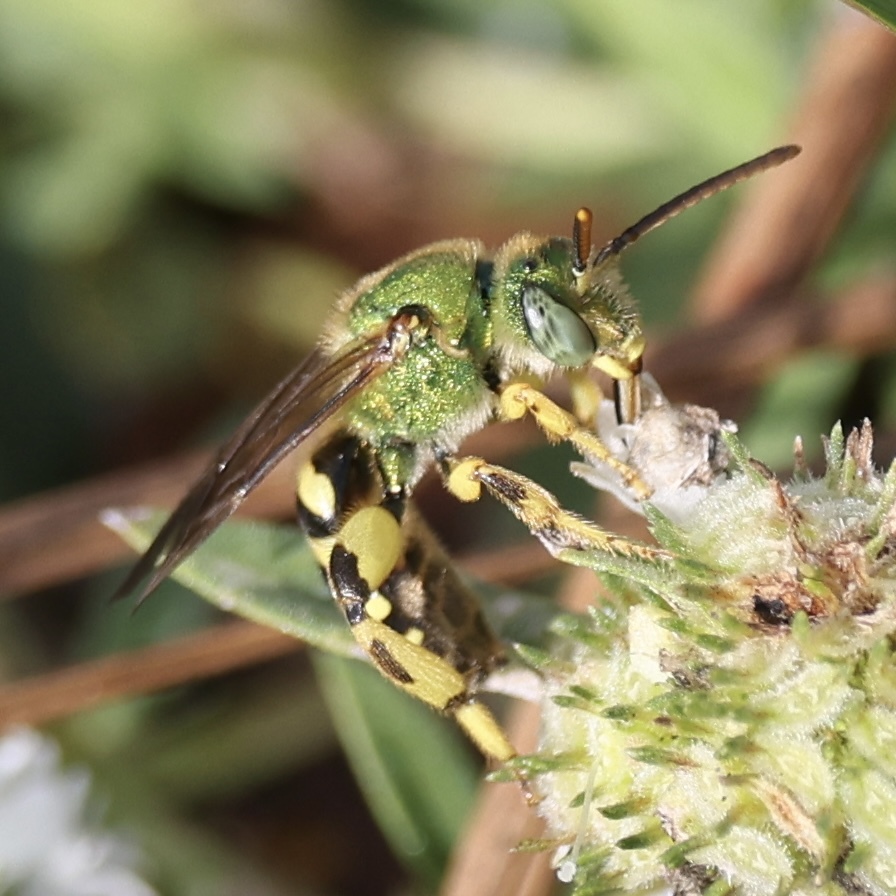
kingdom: Animalia
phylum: Arthropoda
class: Insecta
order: Hymenoptera
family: Halictidae
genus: Agapostemon
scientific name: Agapostemon splendens
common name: Brown-winged striped sweat bee
